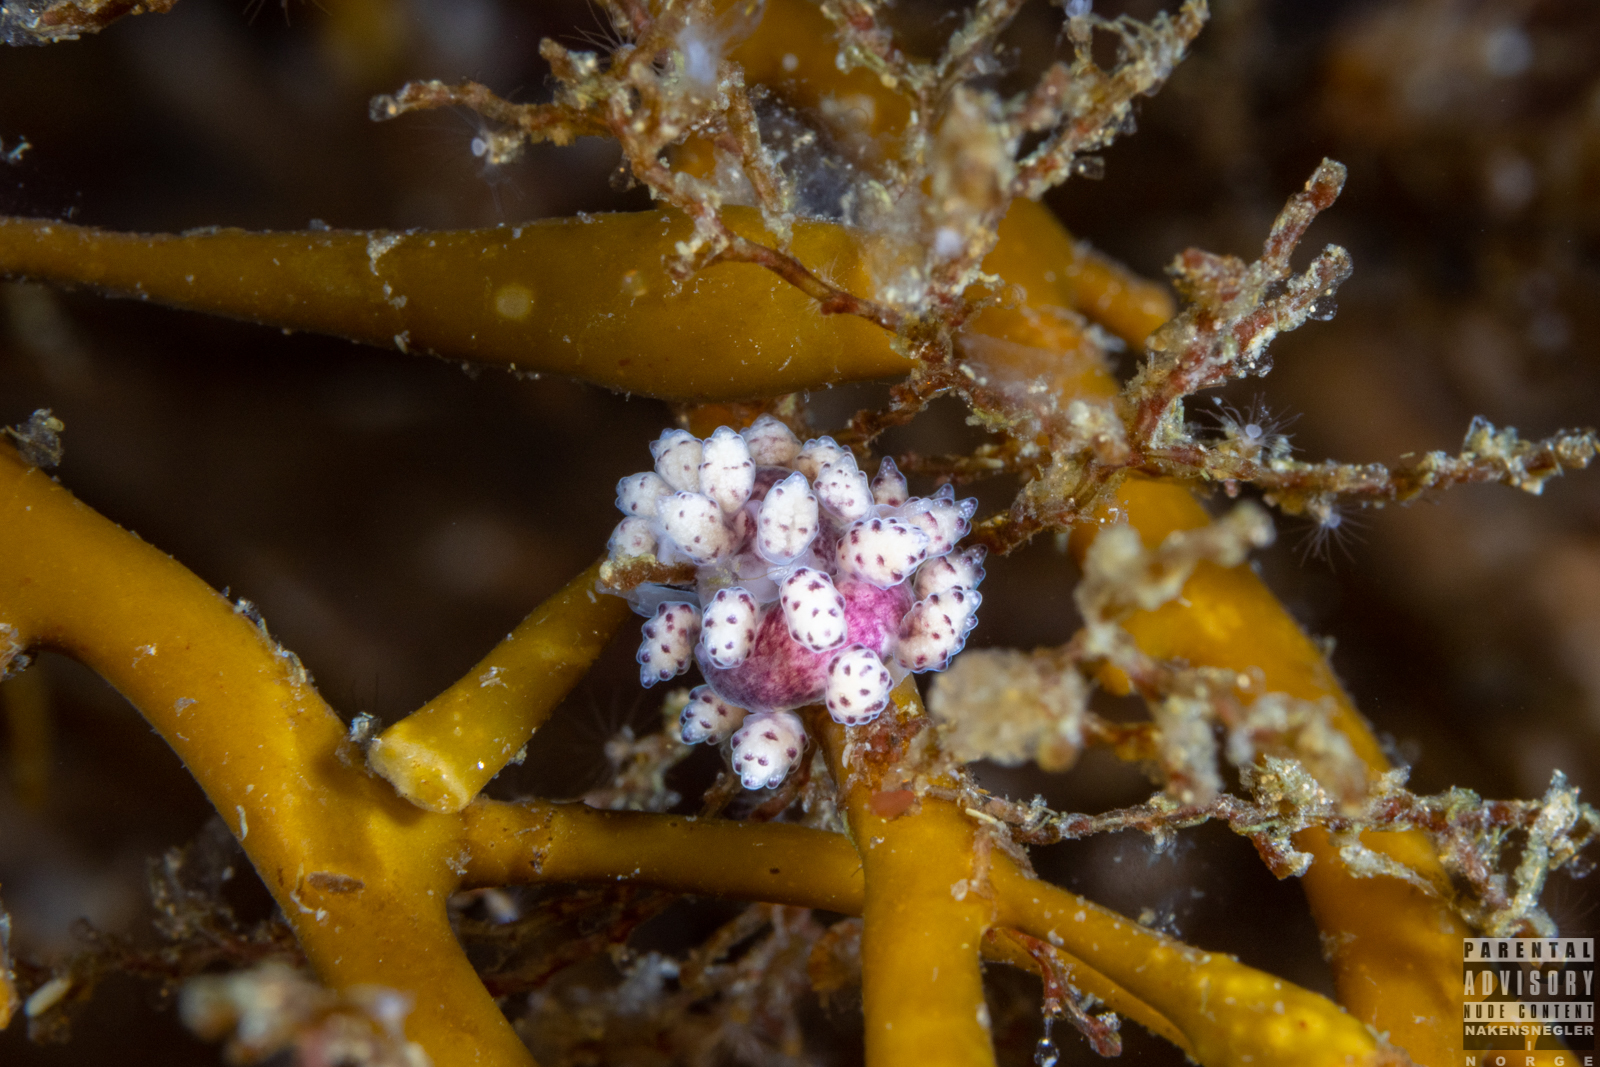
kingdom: Animalia
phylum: Mollusca
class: Gastropoda
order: Nudibranchia
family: Dotidae
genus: Doto
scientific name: Doto coronata
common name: Coronate doto
